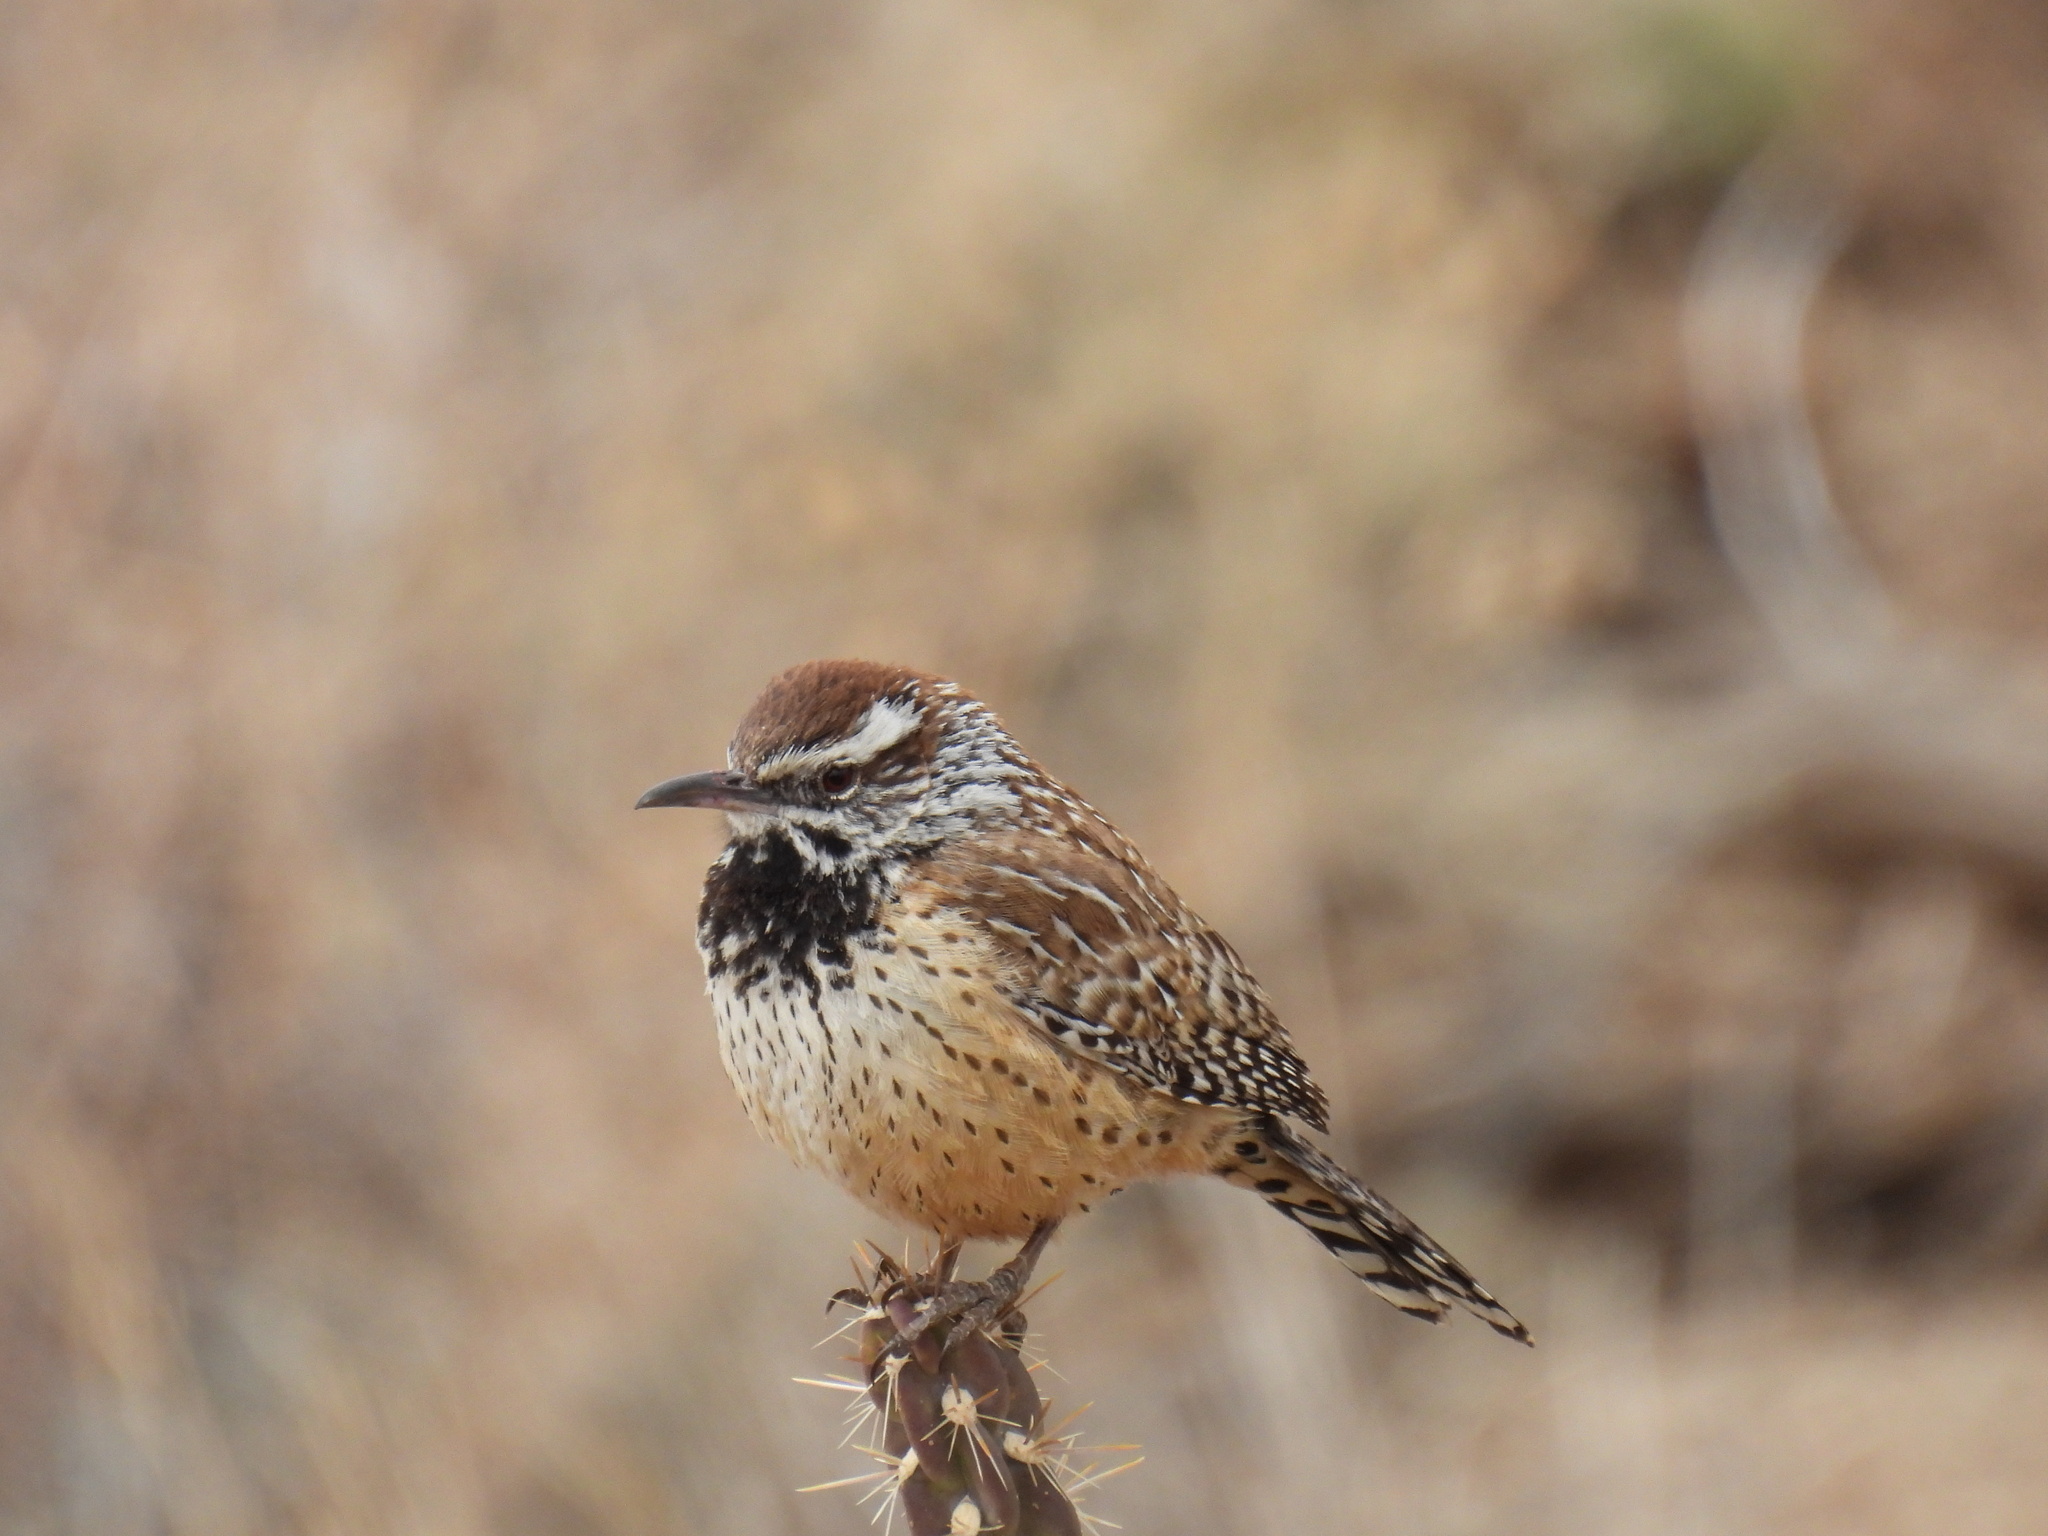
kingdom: Animalia
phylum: Chordata
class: Aves
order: Passeriformes
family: Troglodytidae
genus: Campylorhynchus
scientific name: Campylorhynchus brunneicapillus
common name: Cactus wren
